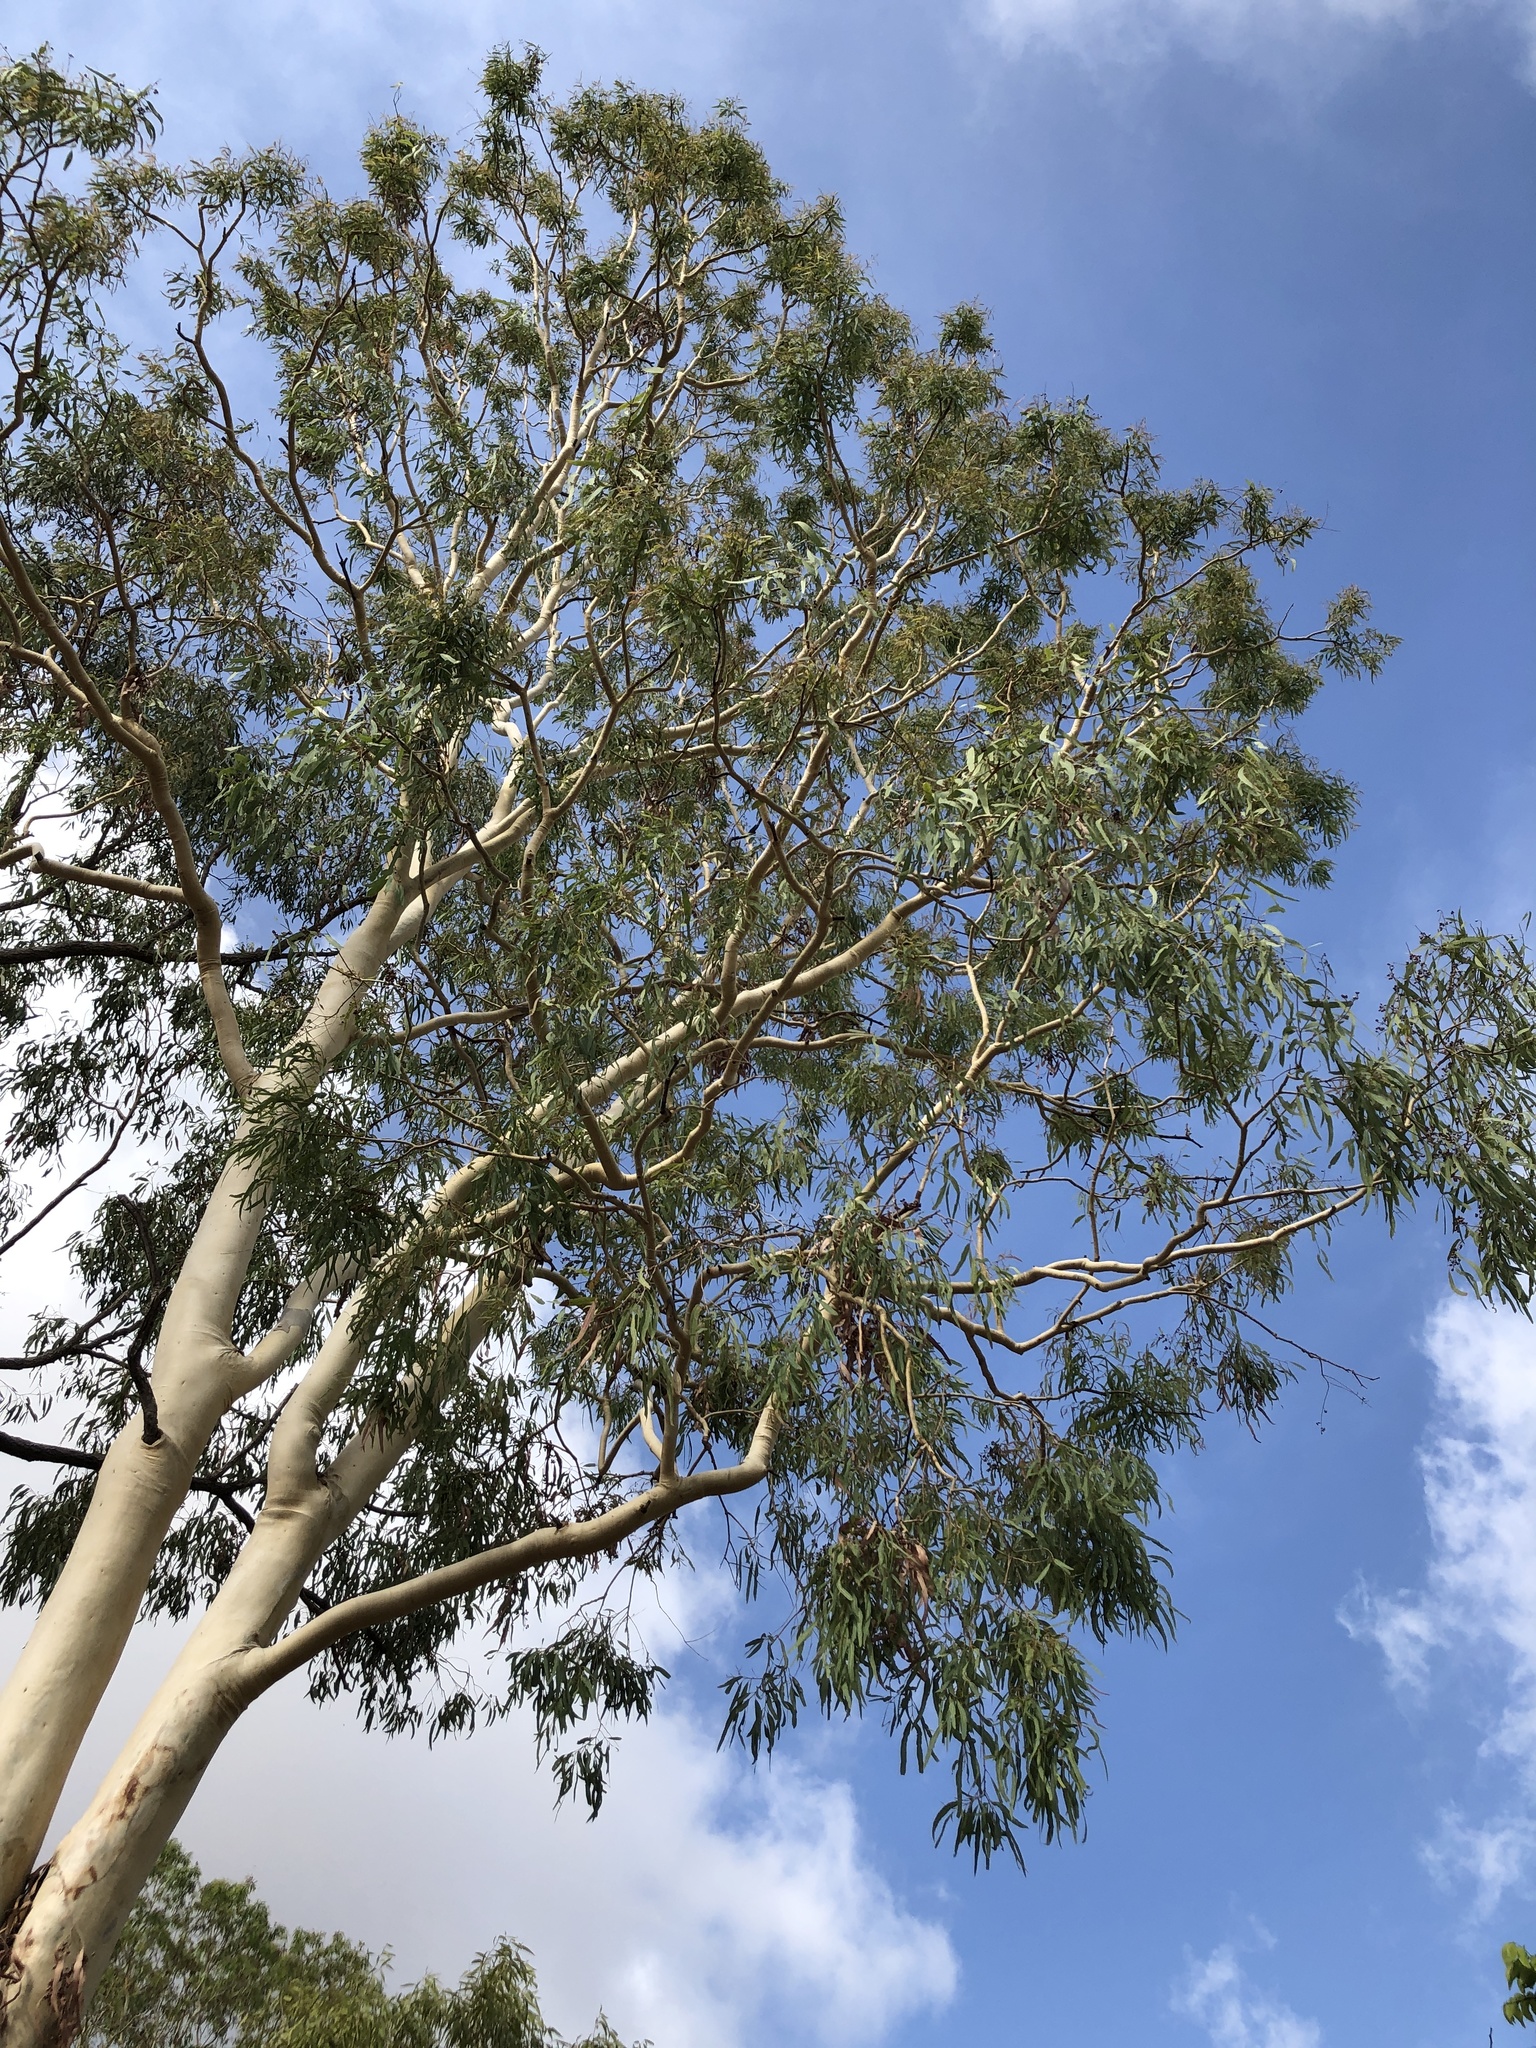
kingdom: Plantae
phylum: Tracheophyta
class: Magnoliopsida
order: Myrtales
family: Myrtaceae
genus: Corymbia
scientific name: Corymbia tessellaris
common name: Carbeen
